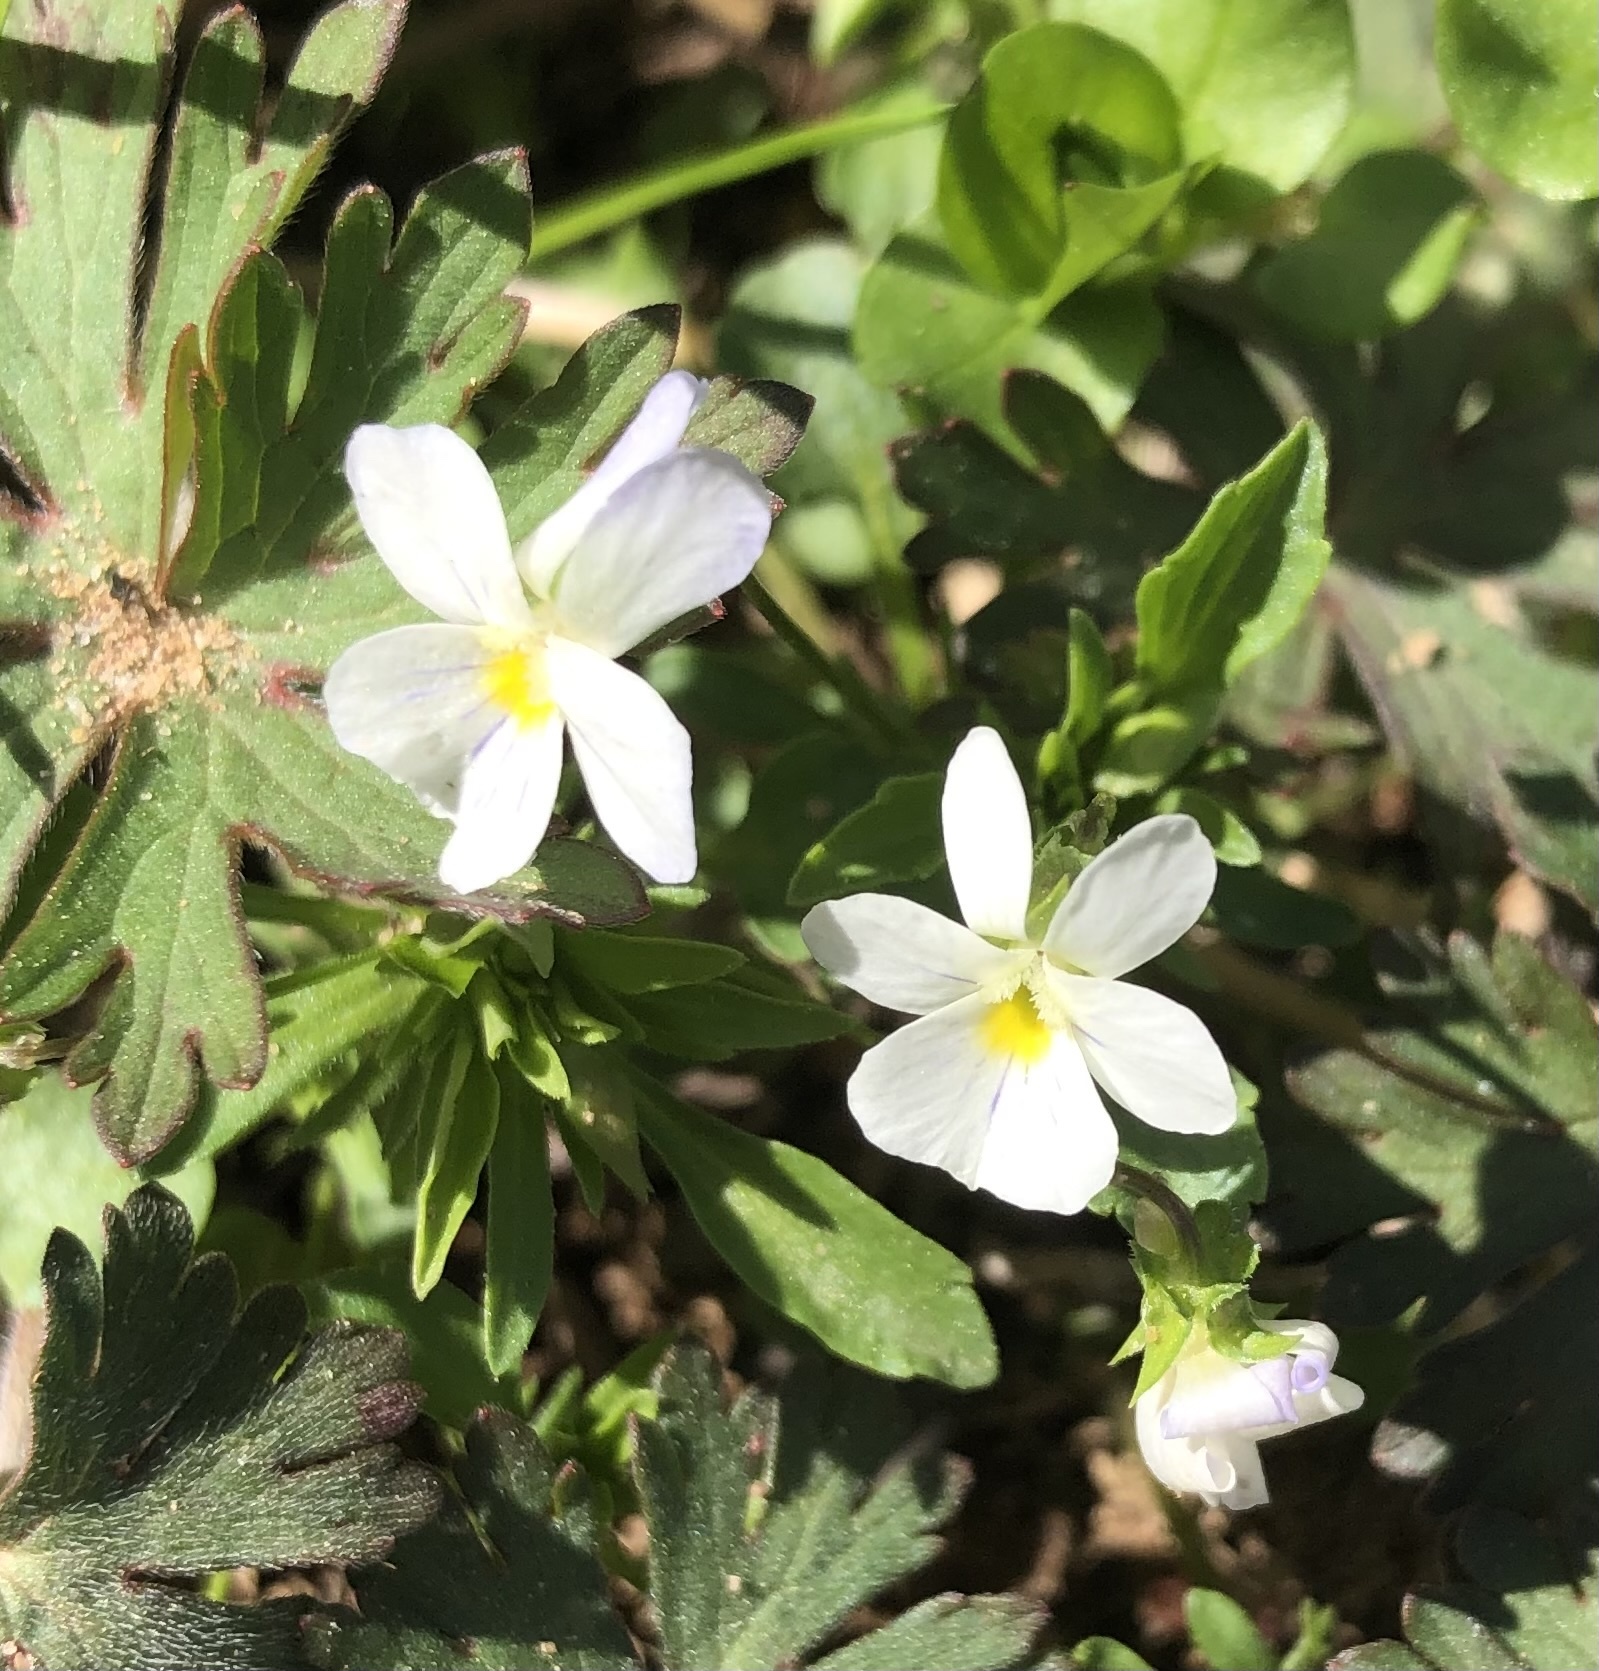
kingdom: Plantae
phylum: Tracheophyta
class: Magnoliopsida
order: Malpighiales
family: Violaceae
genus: Viola
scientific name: Viola rafinesquei
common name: American field pansy
